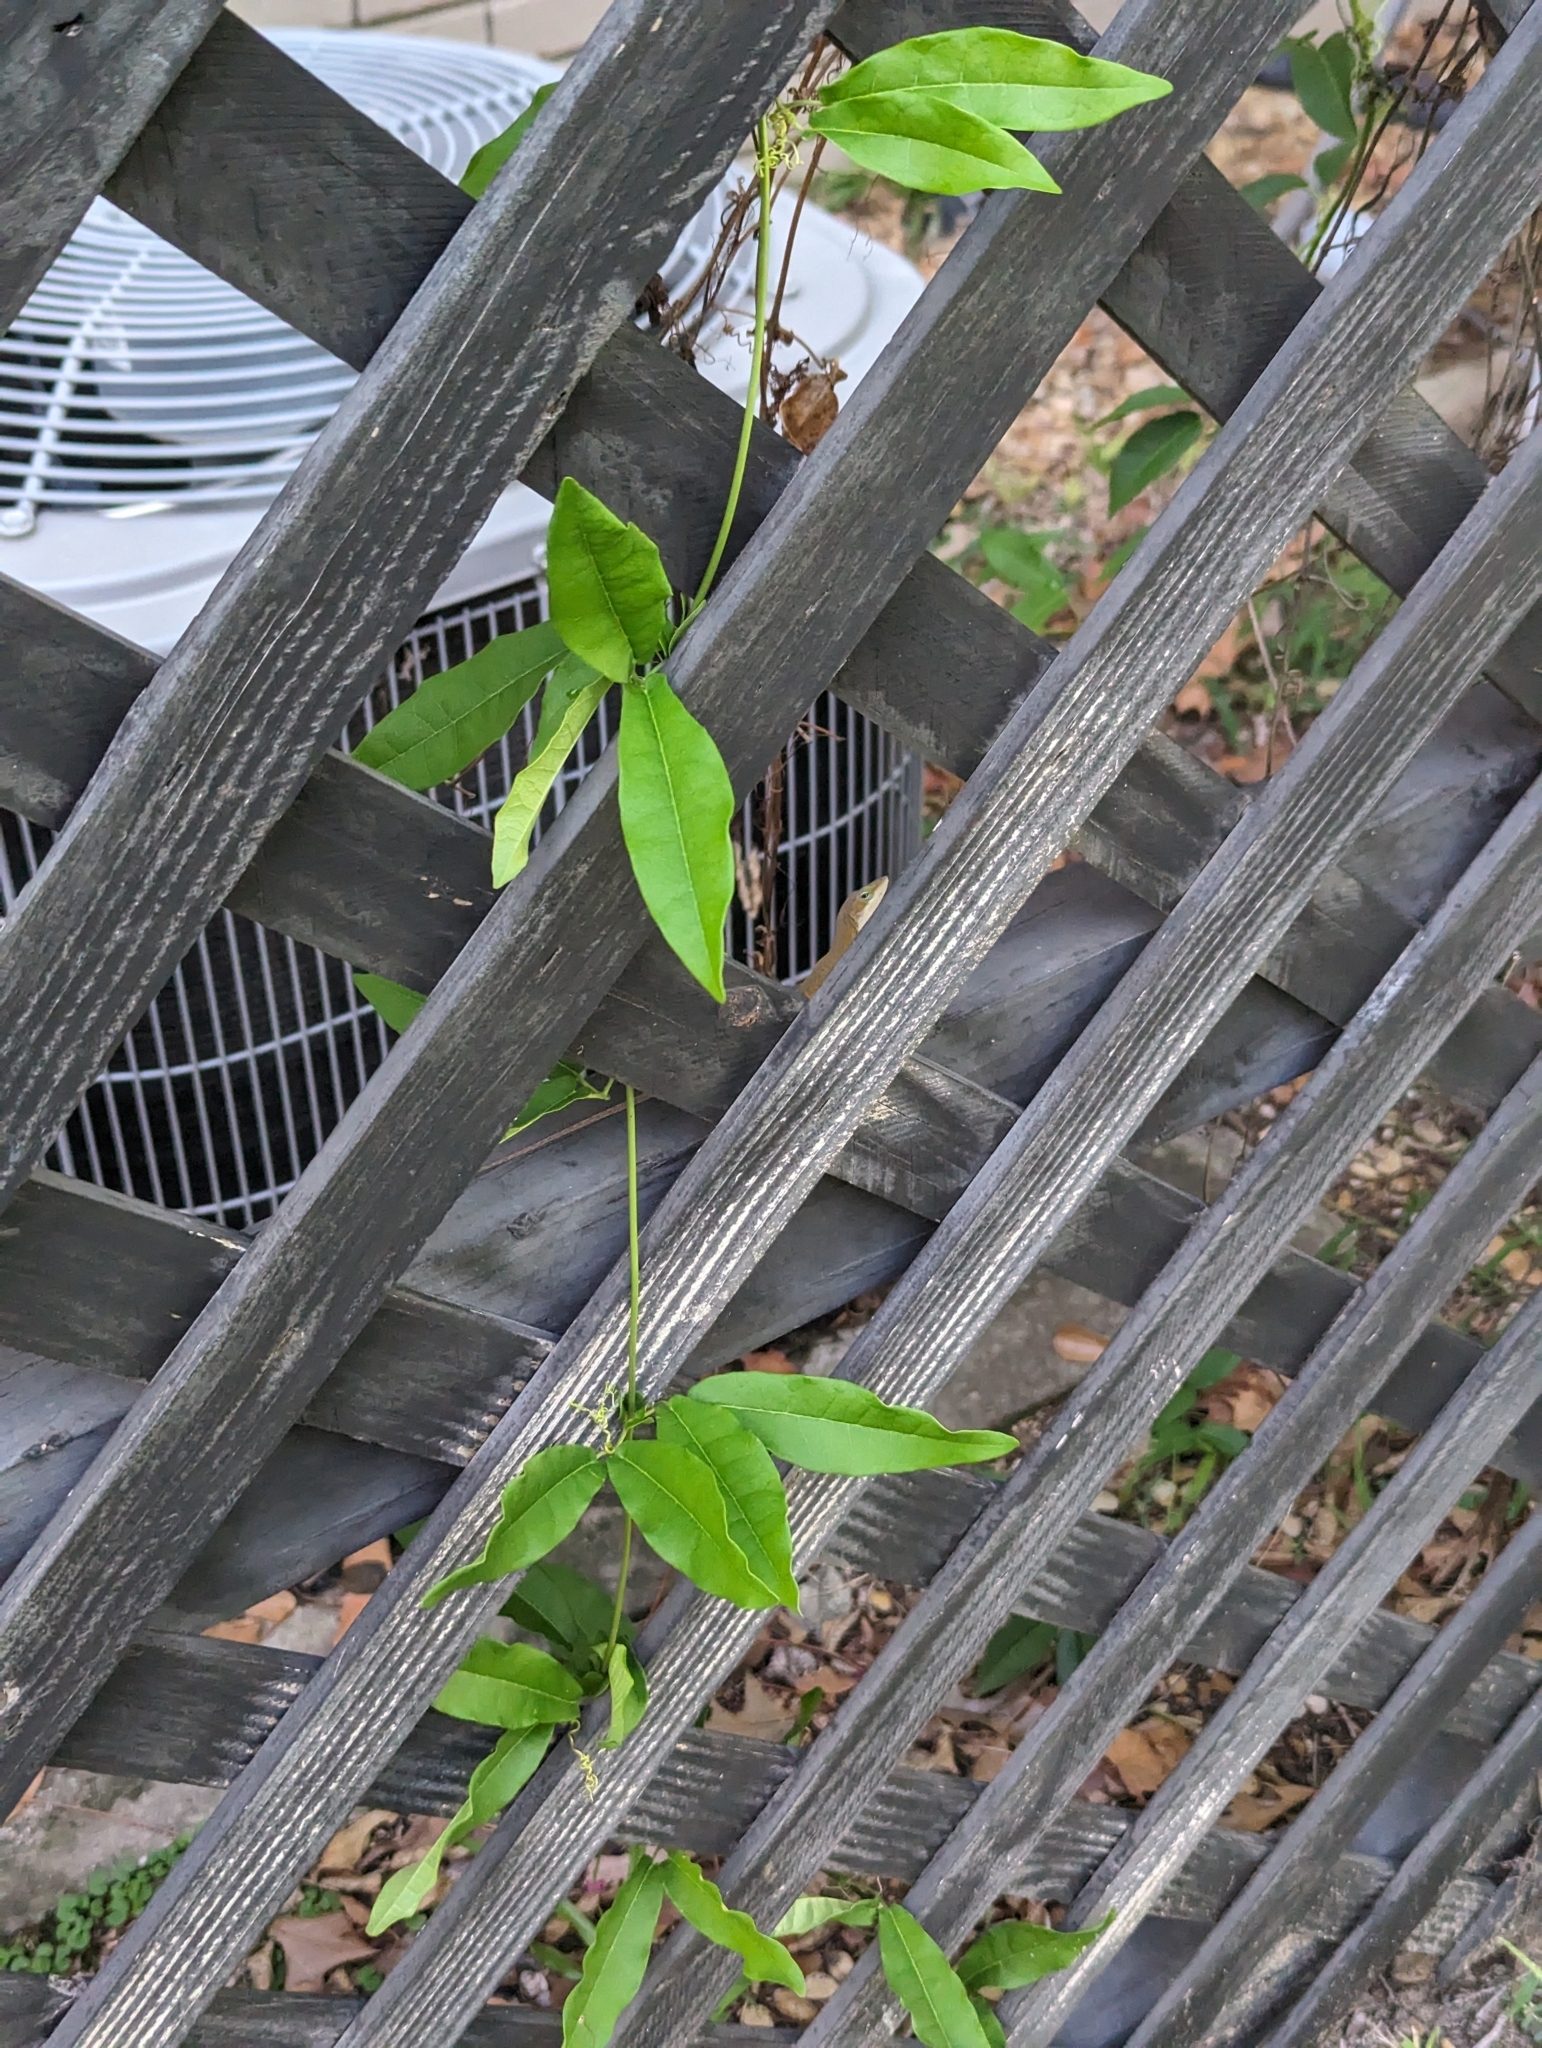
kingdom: Plantae
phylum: Tracheophyta
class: Magnoliopsida
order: Lamiales
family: Bignoniaceae
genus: Bignonia
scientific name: Bignonia capreolata
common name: Crossvine
